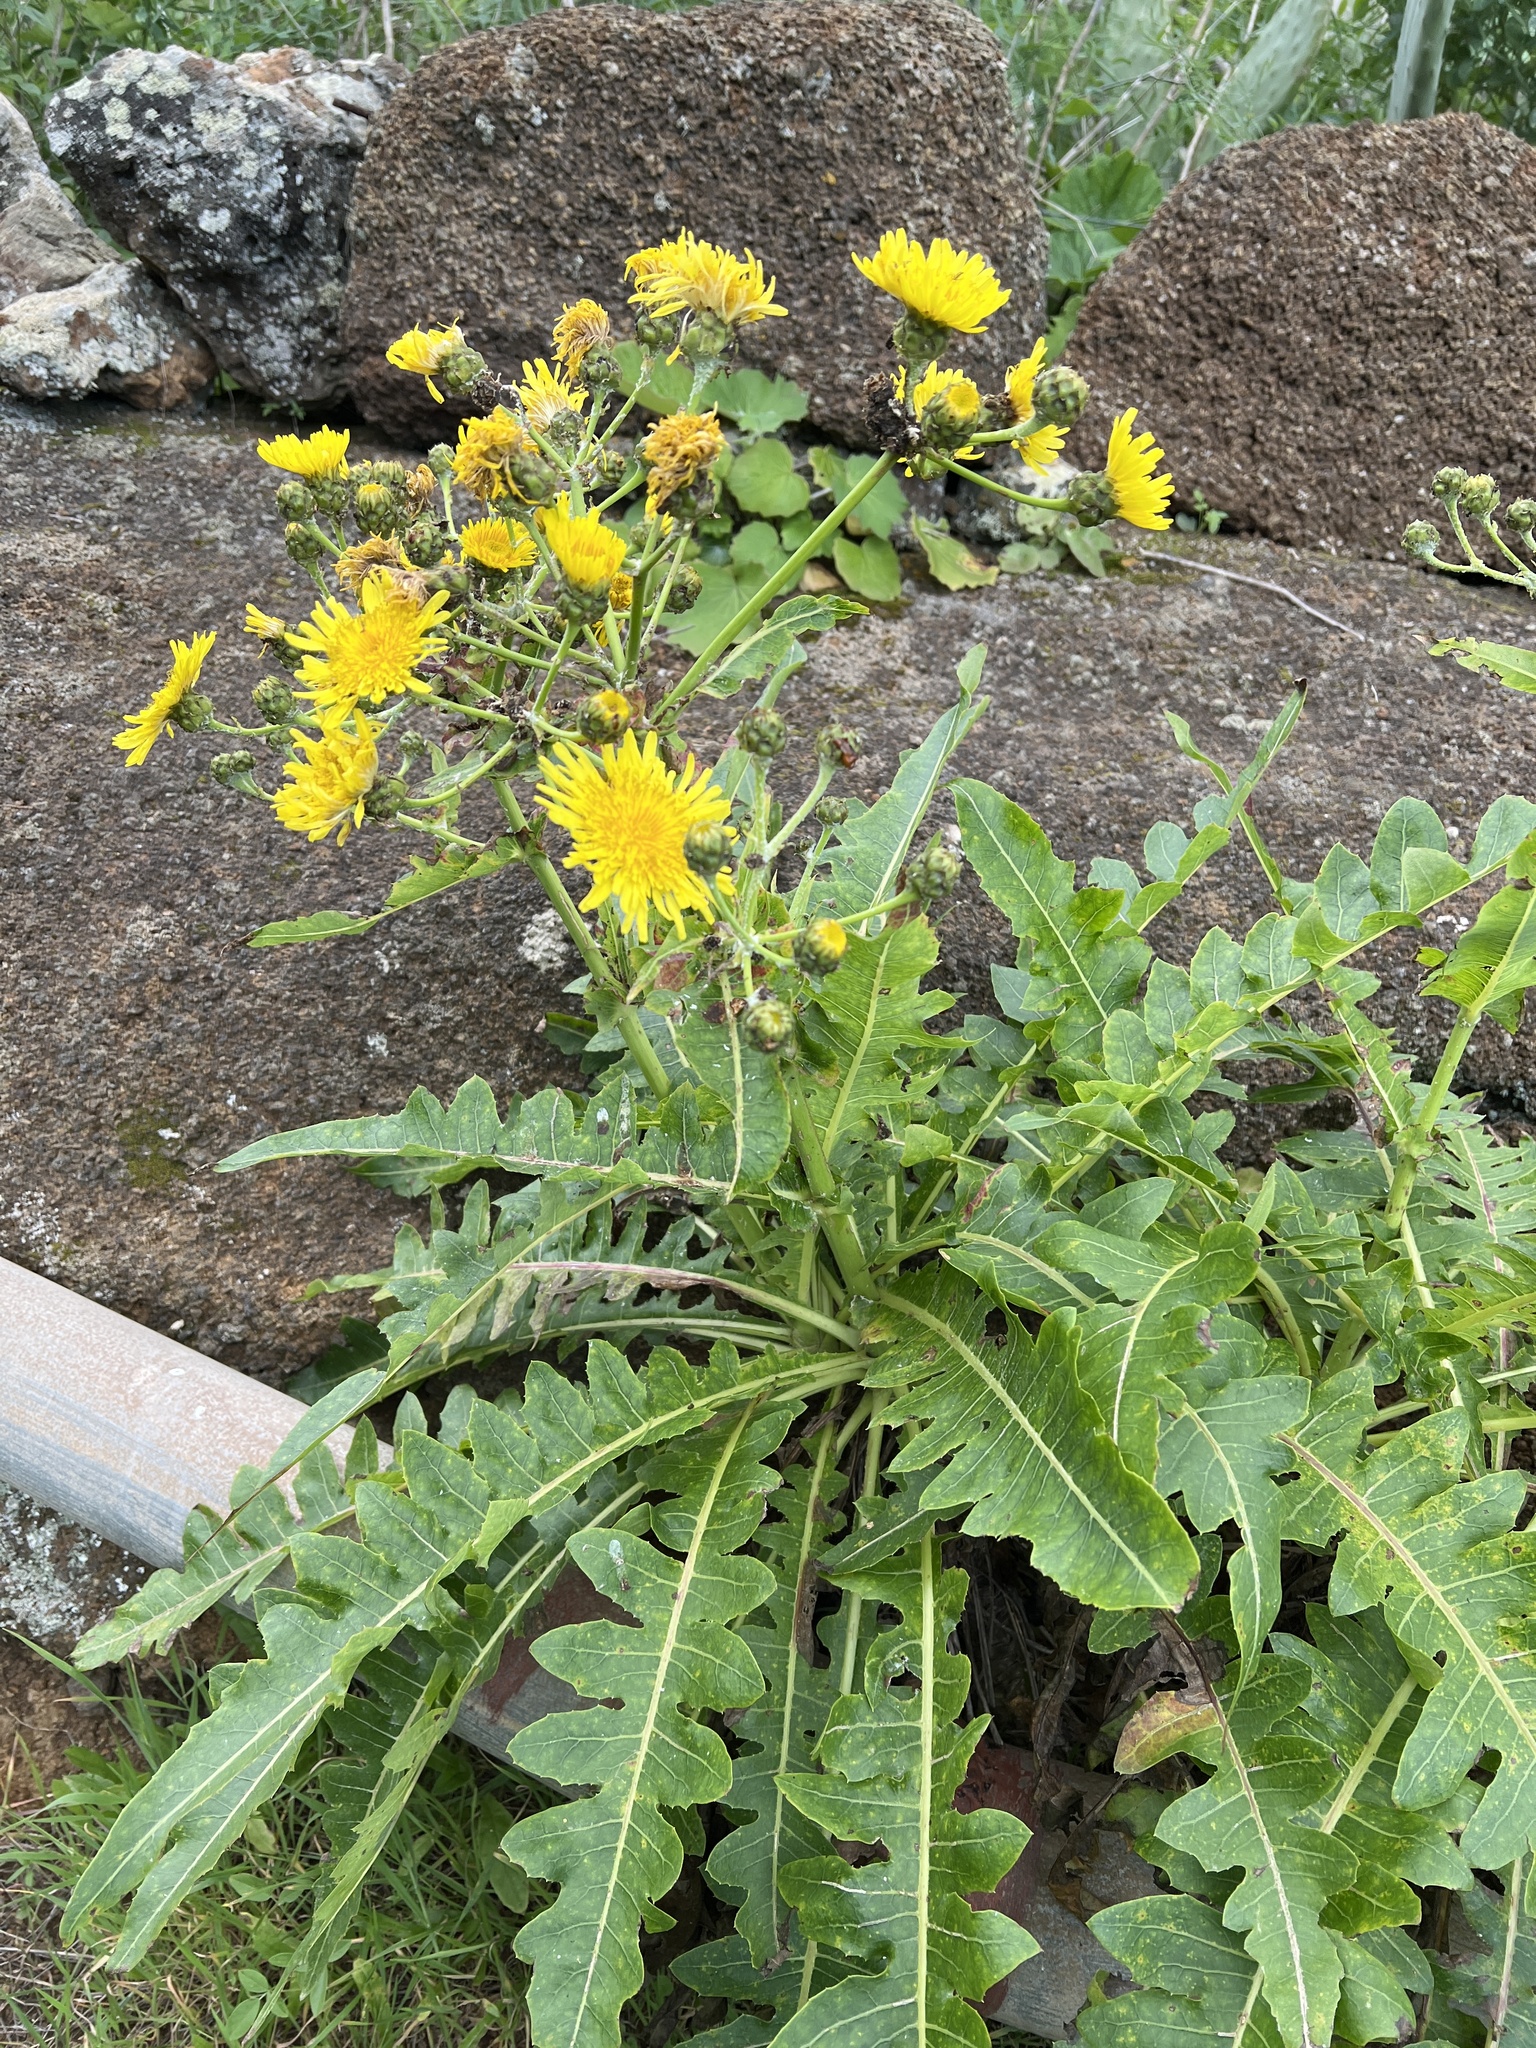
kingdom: Plantae
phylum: Tracheophyta
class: Magnoliopsida
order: Asterales
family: Asteraceae
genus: Sonchus
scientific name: Sonchus hierrensis
